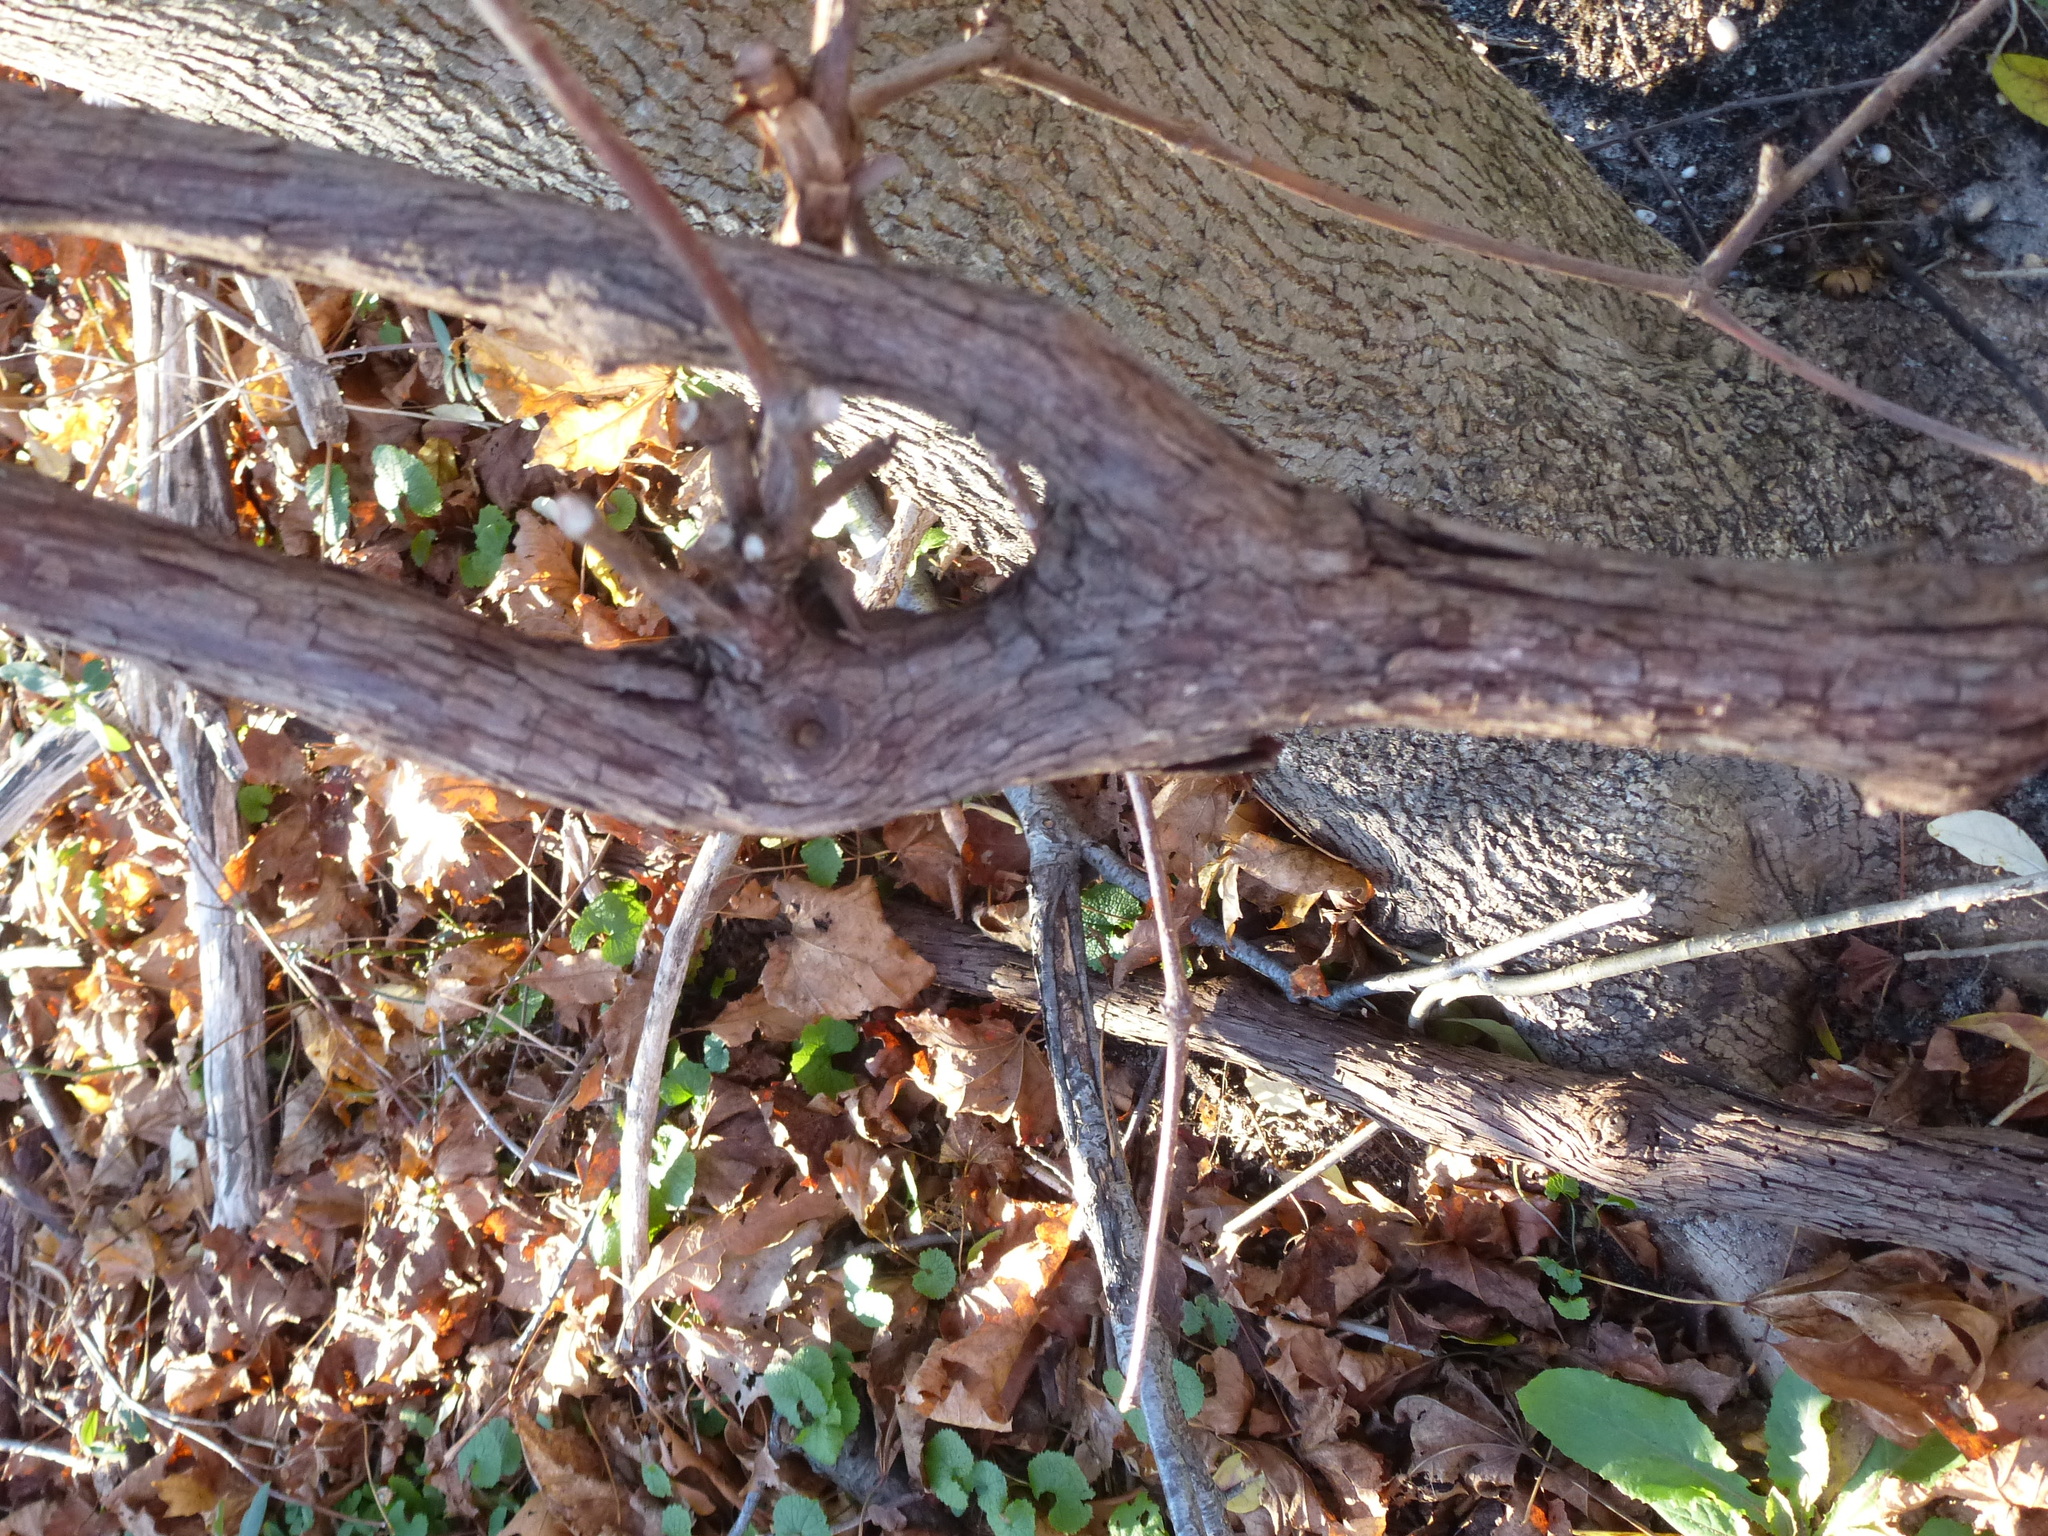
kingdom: Plantae
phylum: Tracheophyta
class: Magnoliopsida
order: Vitales
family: Vitaceae
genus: Vitis
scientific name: Vitis riparia
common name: Frost grape
